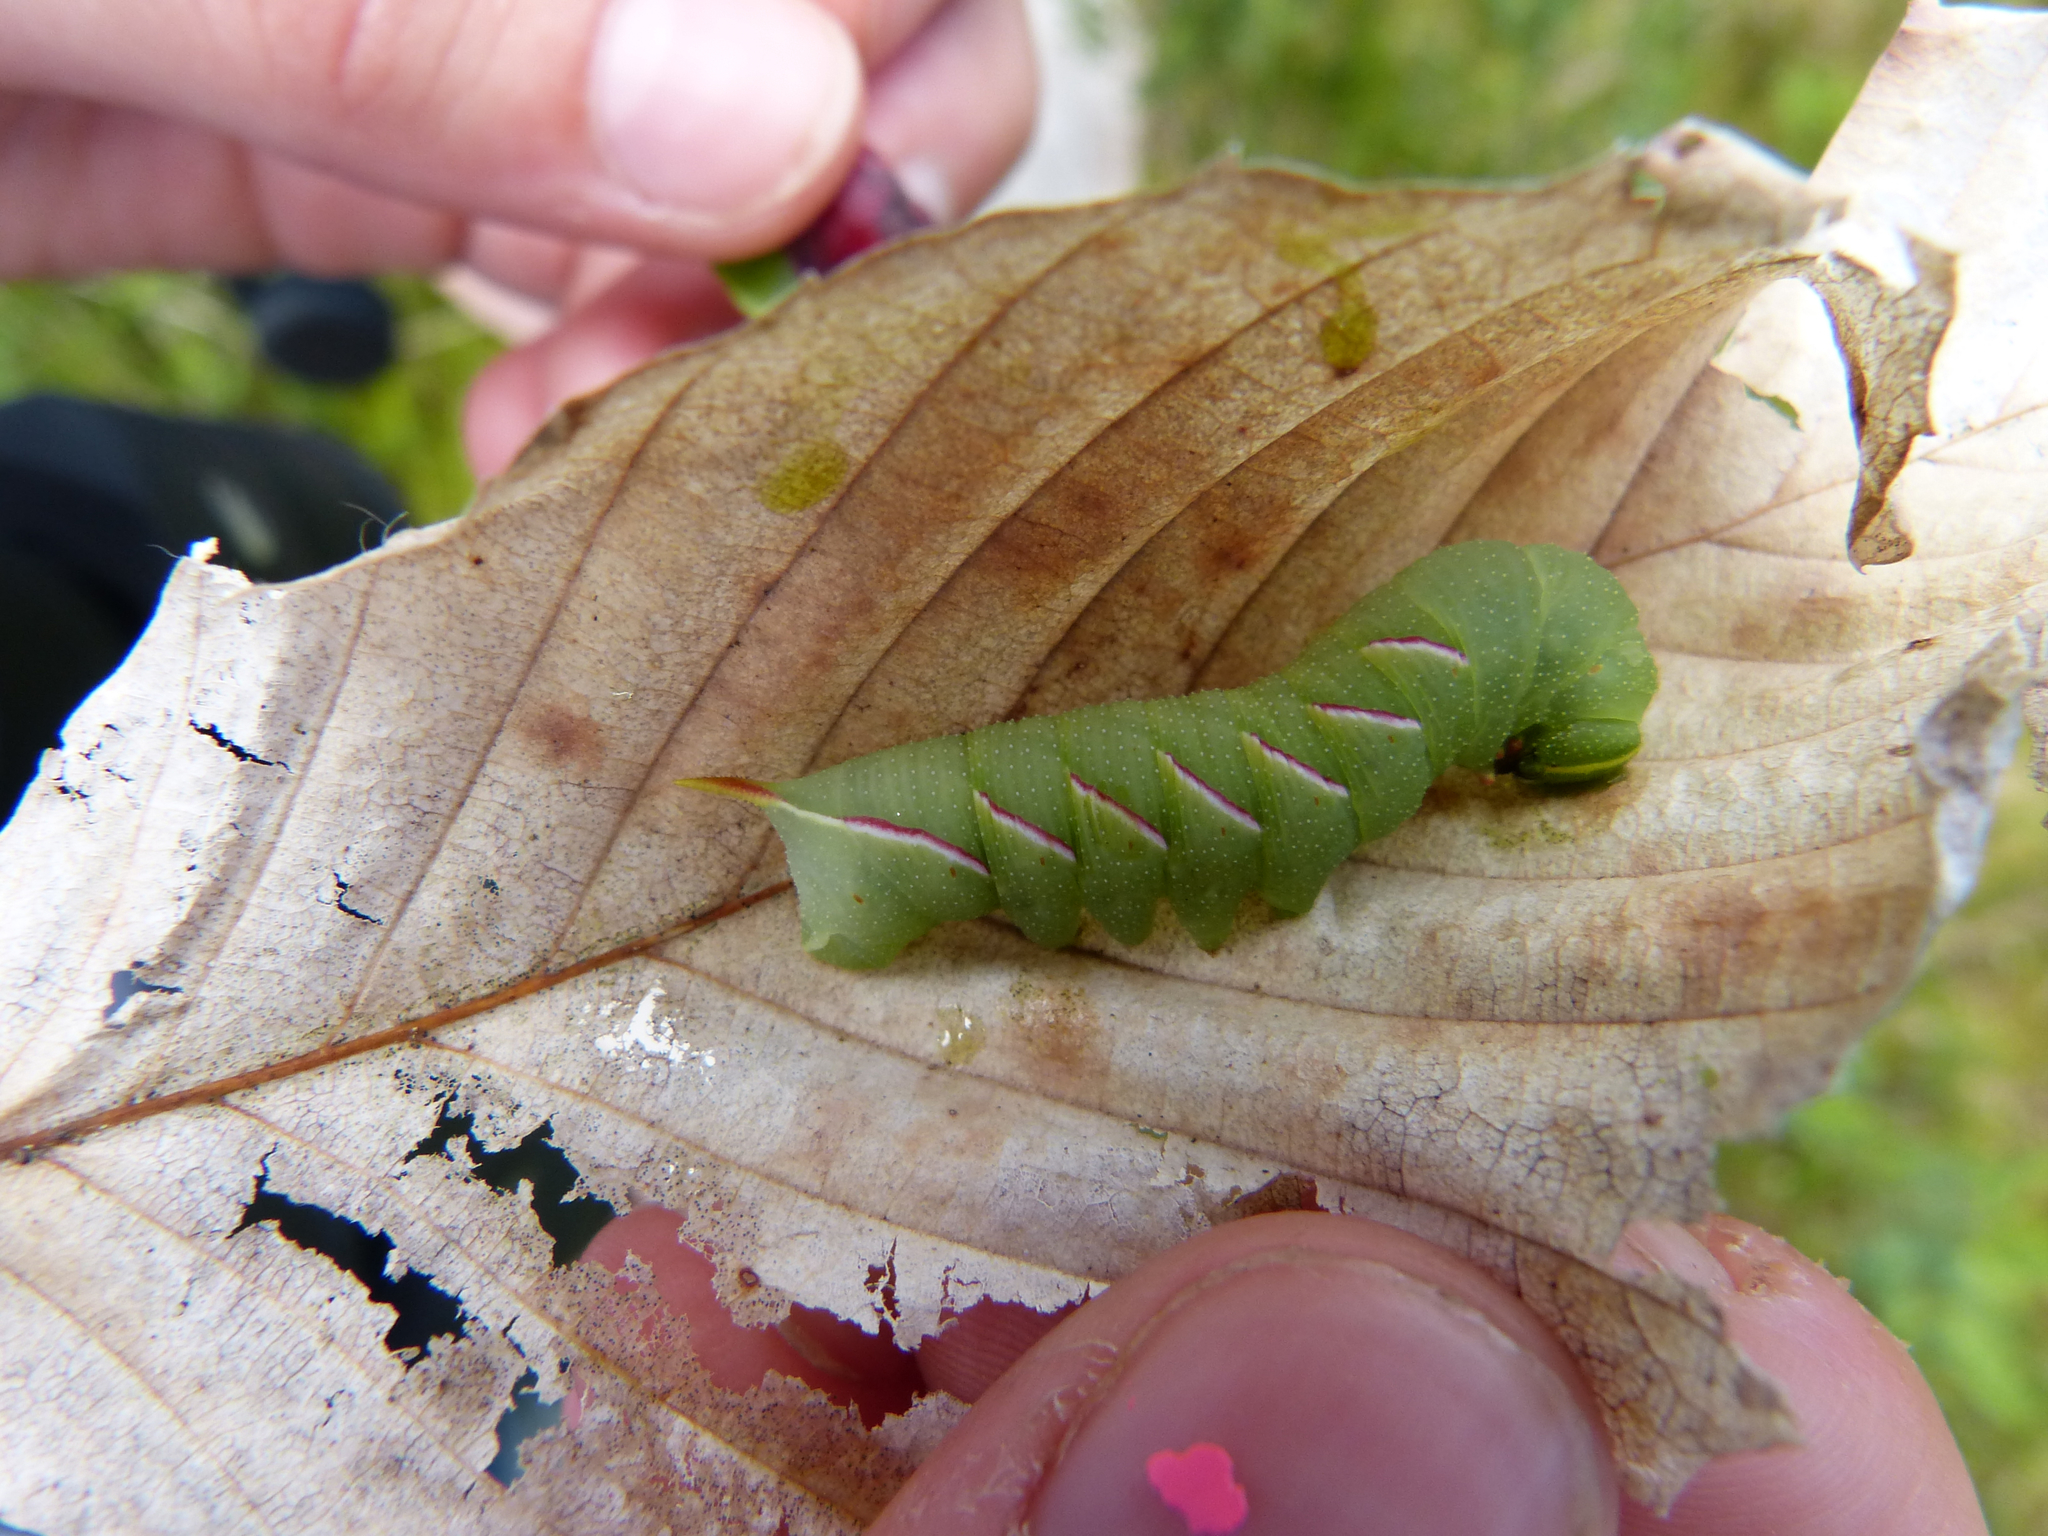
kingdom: Animalia
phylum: Arthropoda
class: Insecta
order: Lepidoptera
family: Sphingidae
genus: Sphinx
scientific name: Sphinx drupiferarum
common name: Wild cherry sphinx
